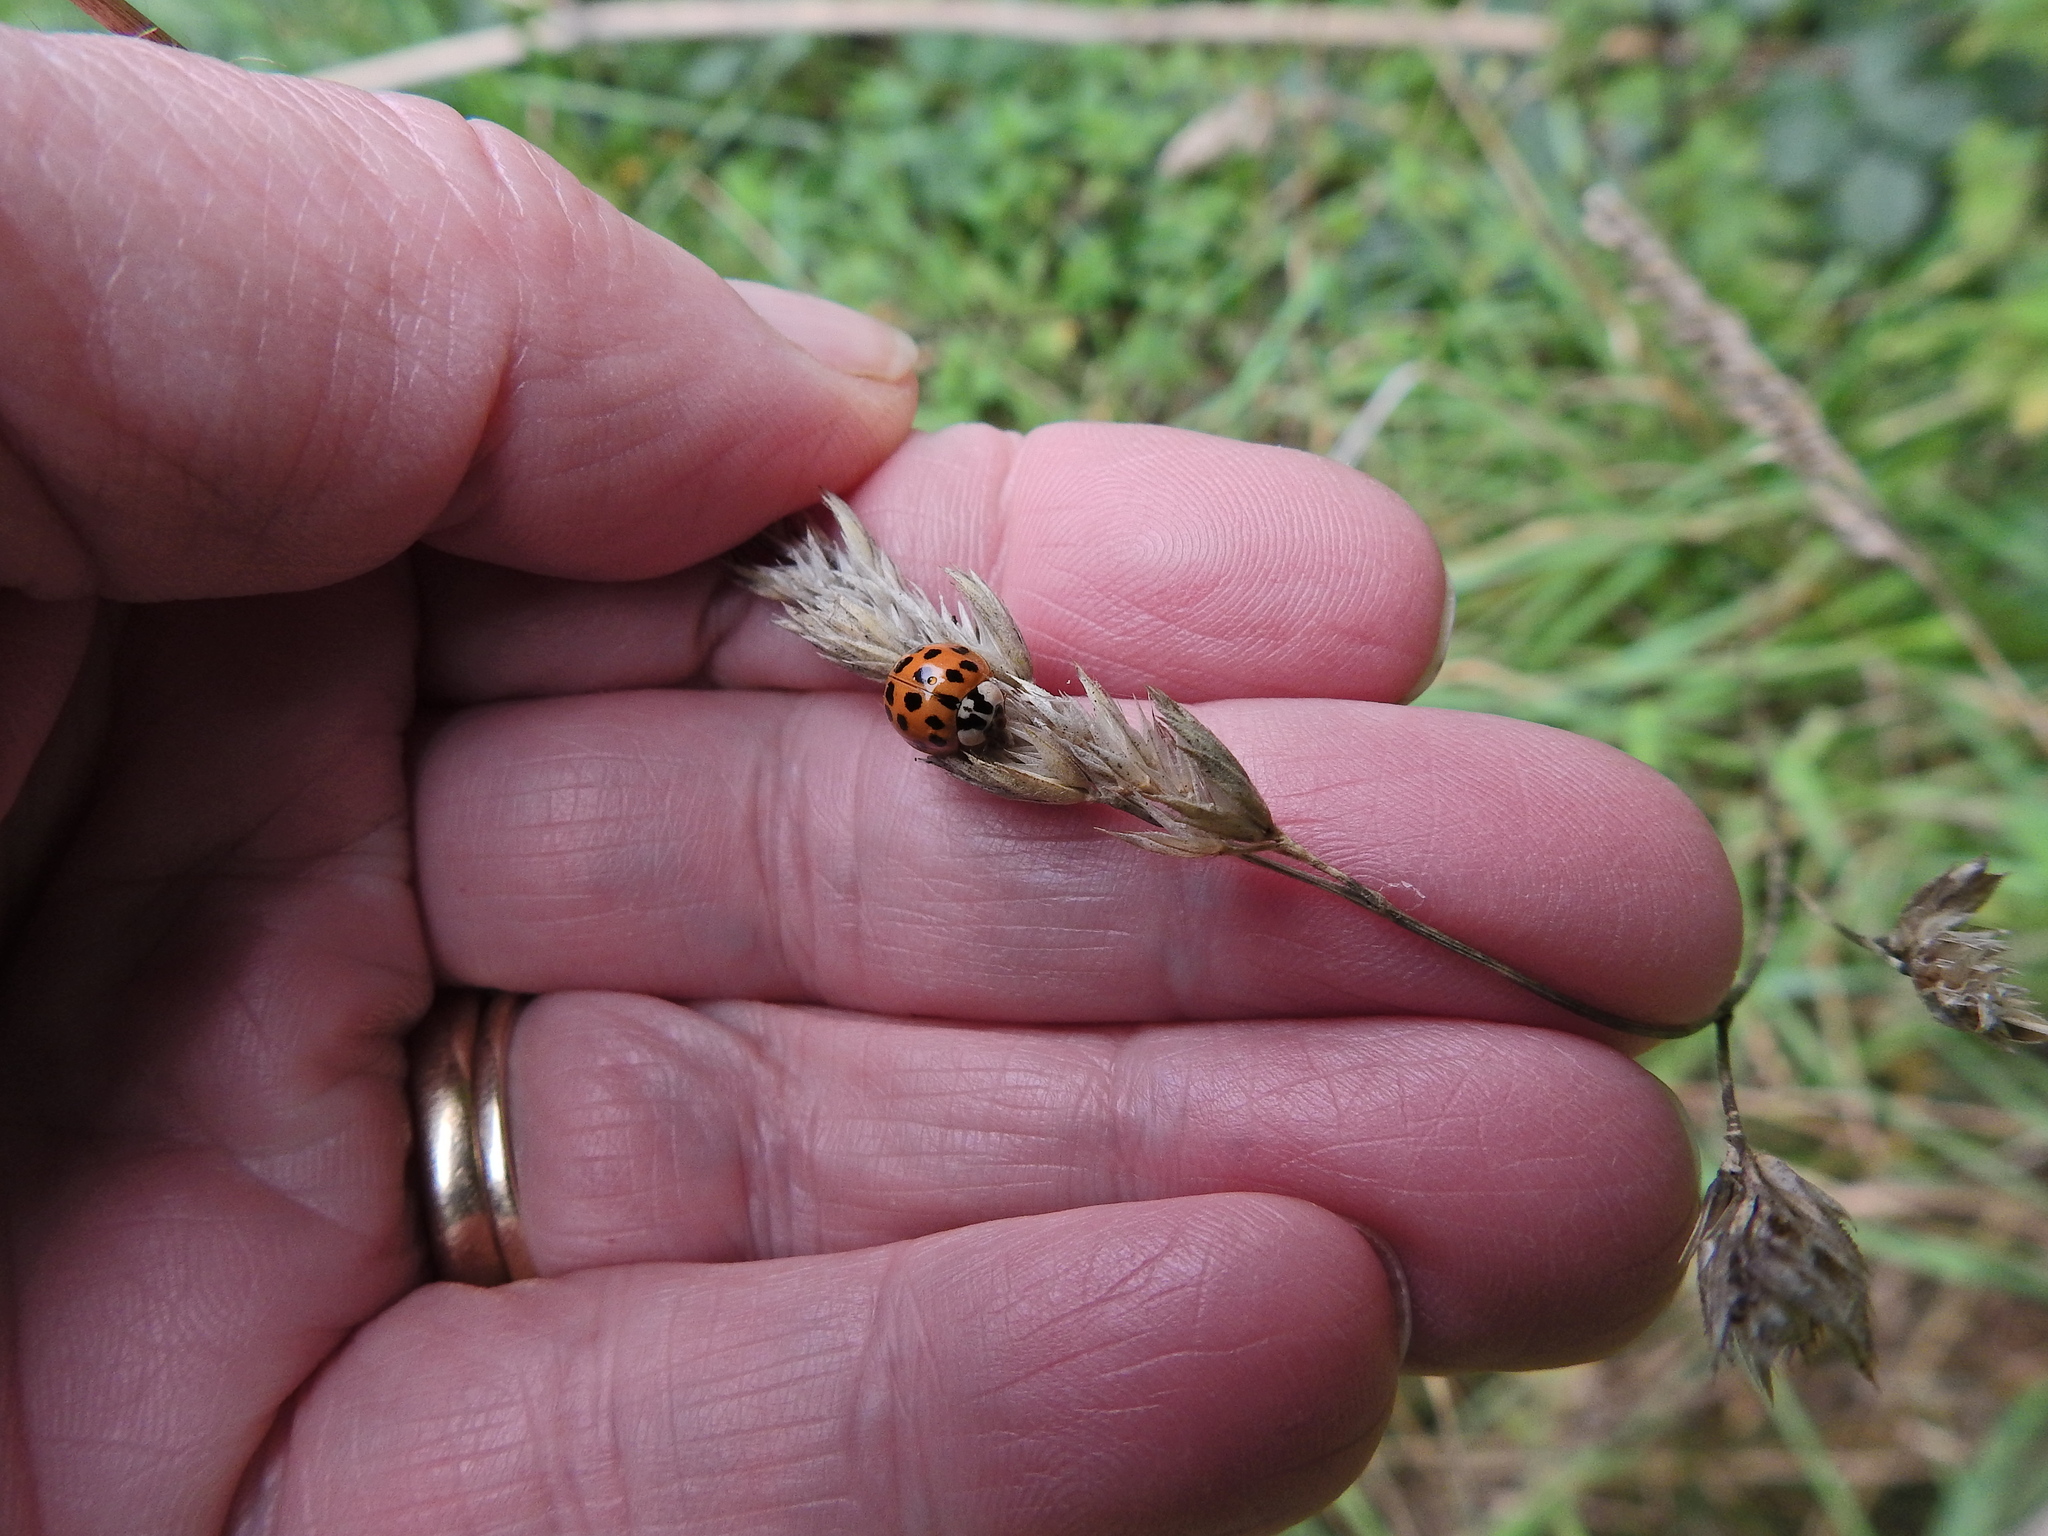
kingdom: Animalia
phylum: Arthropoda
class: Insecta
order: Coleoptera
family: Coccinellidae
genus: Harmonia
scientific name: Harmonia axyridis
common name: Harlequin ladybird
